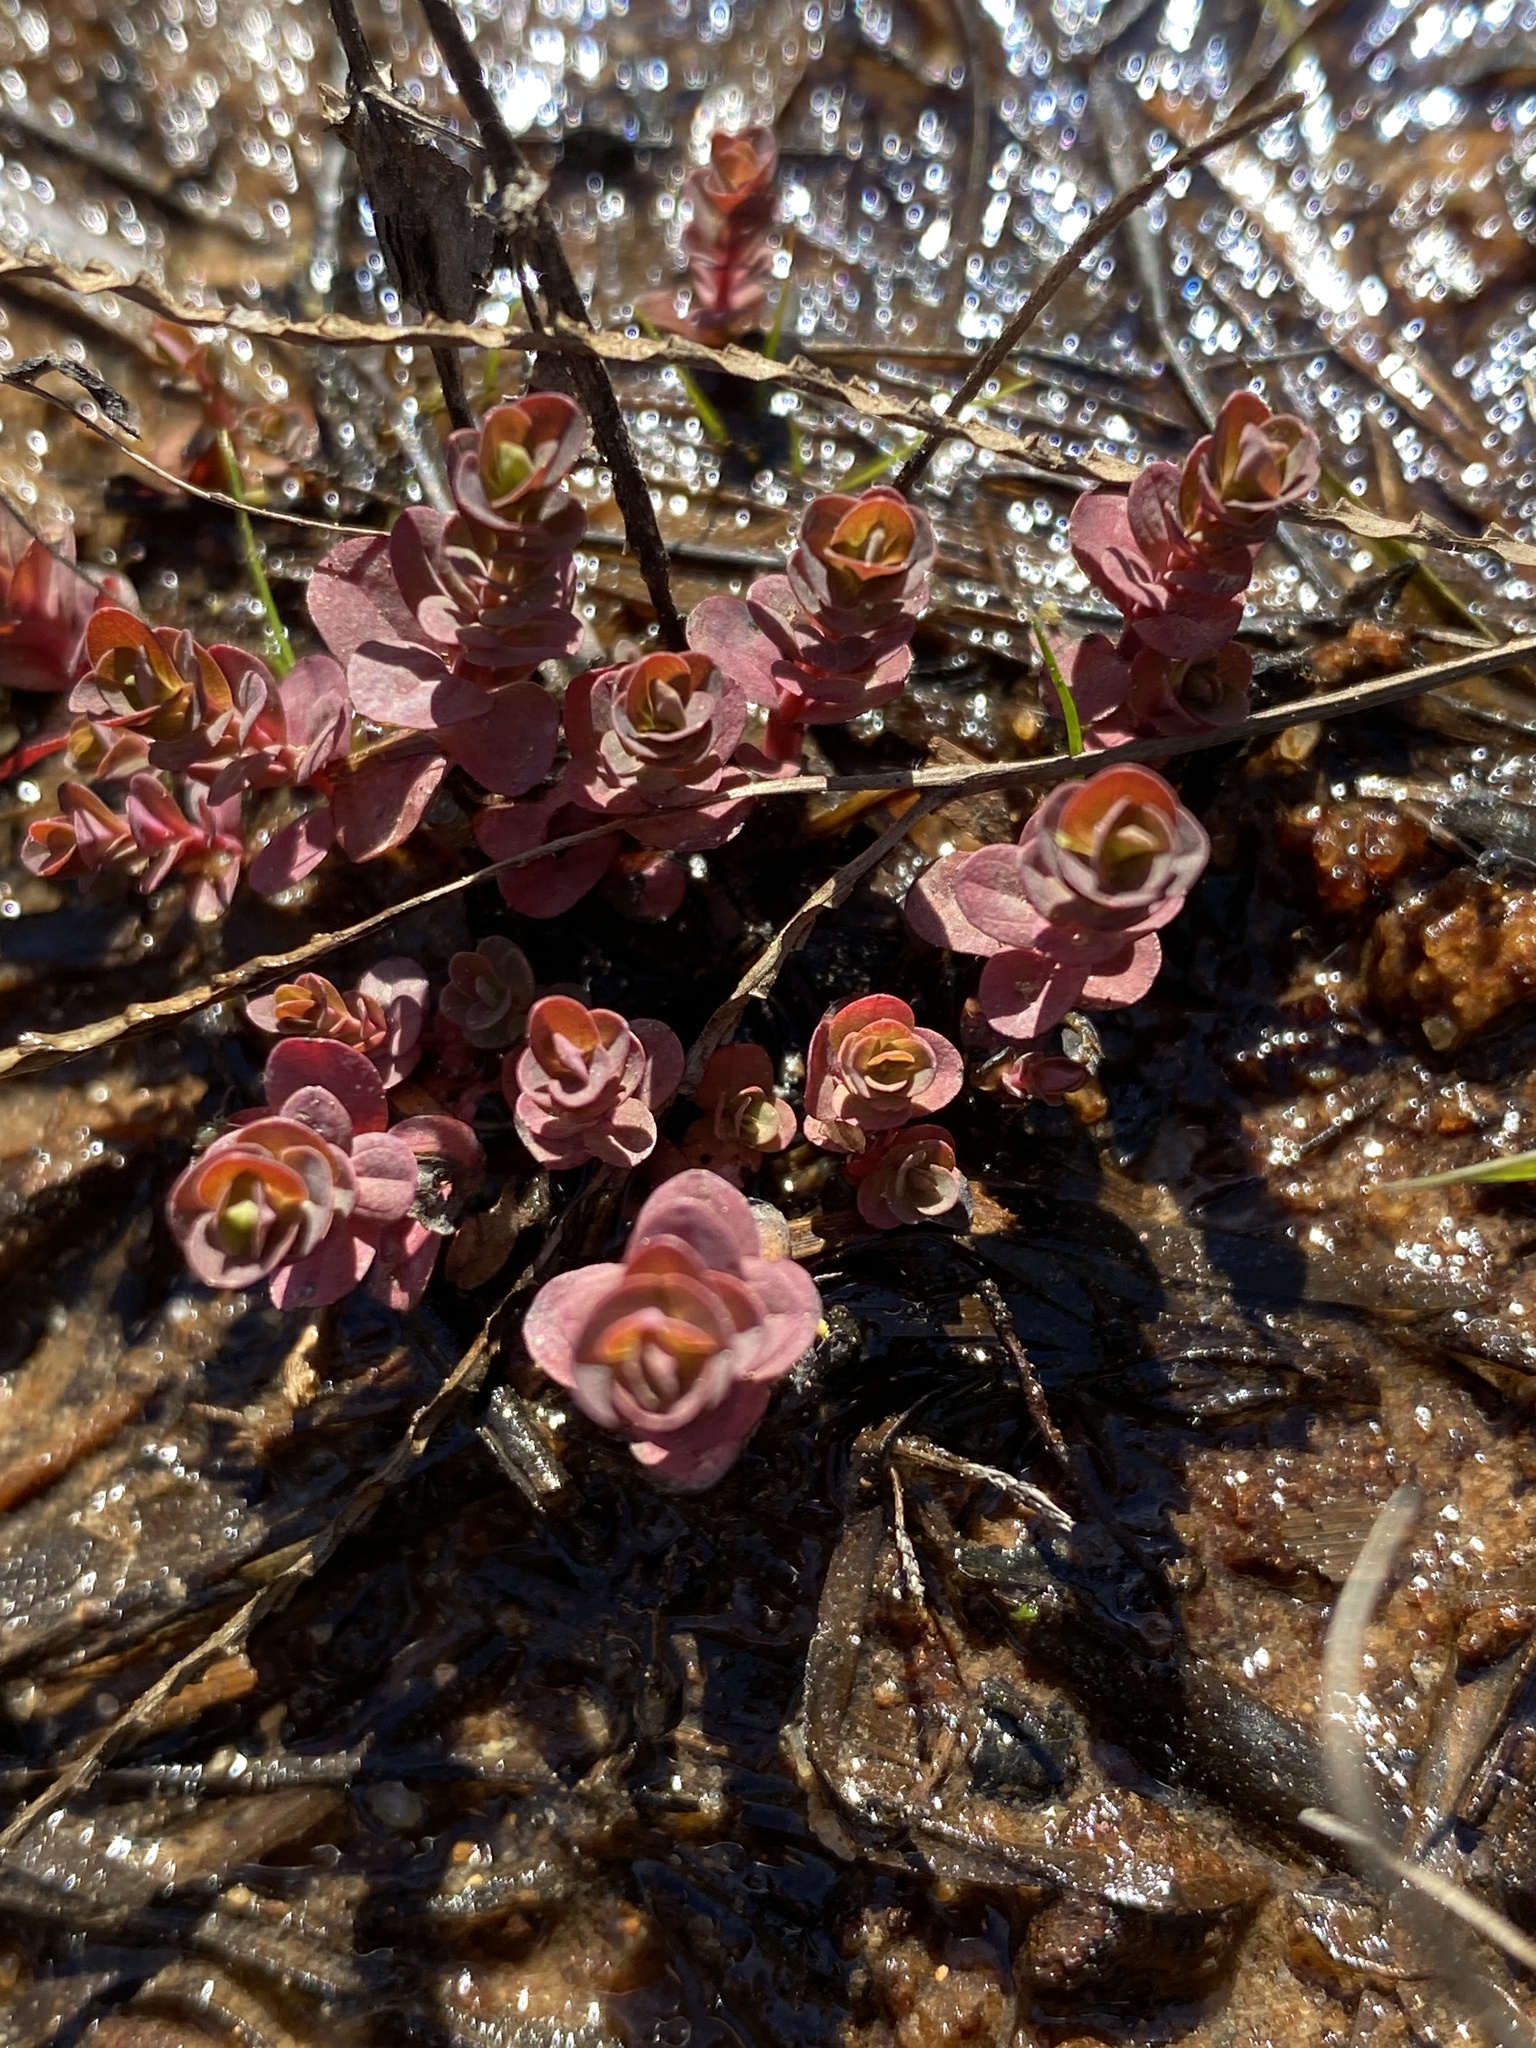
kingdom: Plantae
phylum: Tracheophyta
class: Magnoliopsida
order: Malpighiales
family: Hypericaceae
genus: Hypericum
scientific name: Hypericum mutilum
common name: Dwarf st. john's-wort
